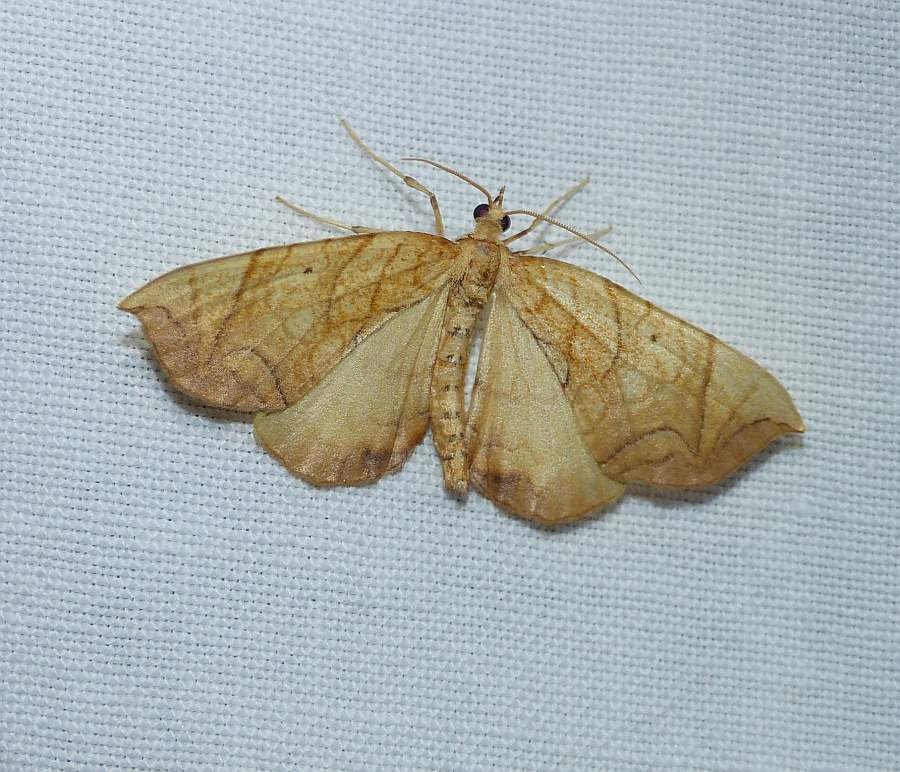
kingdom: Animalia
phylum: Arthropoda
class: Insecta
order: Lepidoptera
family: Geometridae
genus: Eulithis
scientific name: Eulithis
